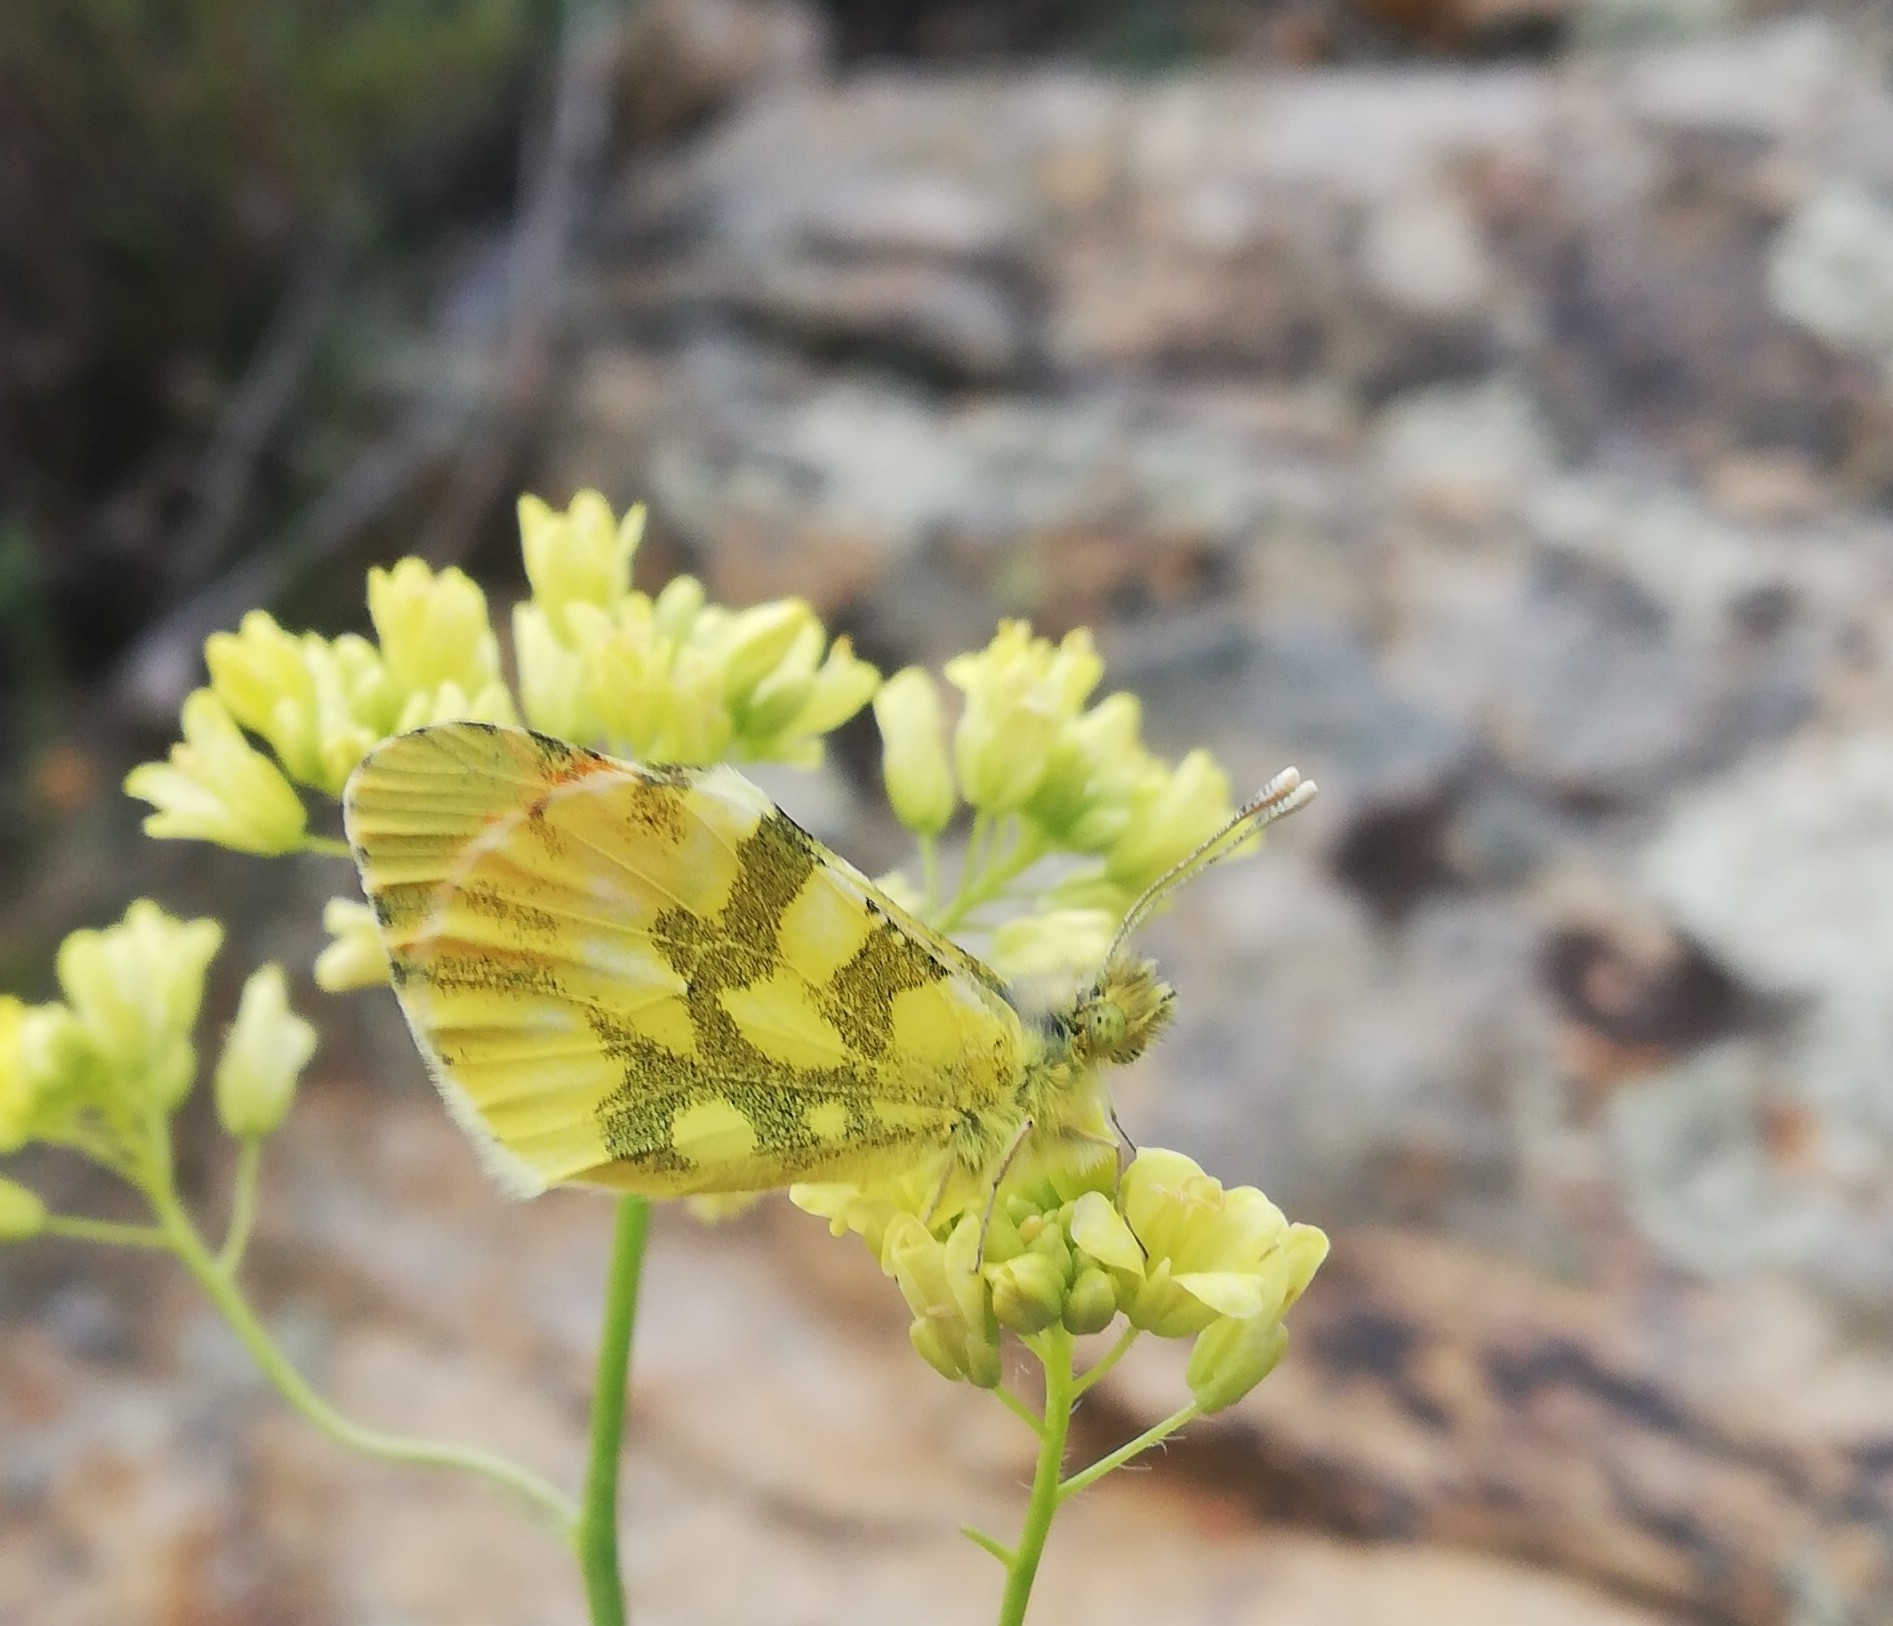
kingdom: Animalia
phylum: Arthropoda
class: Insecta
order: Lepidoptera
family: Pieridae
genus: Anthocharis
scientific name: Anthocharis euphenoides
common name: Provence orange-tip
